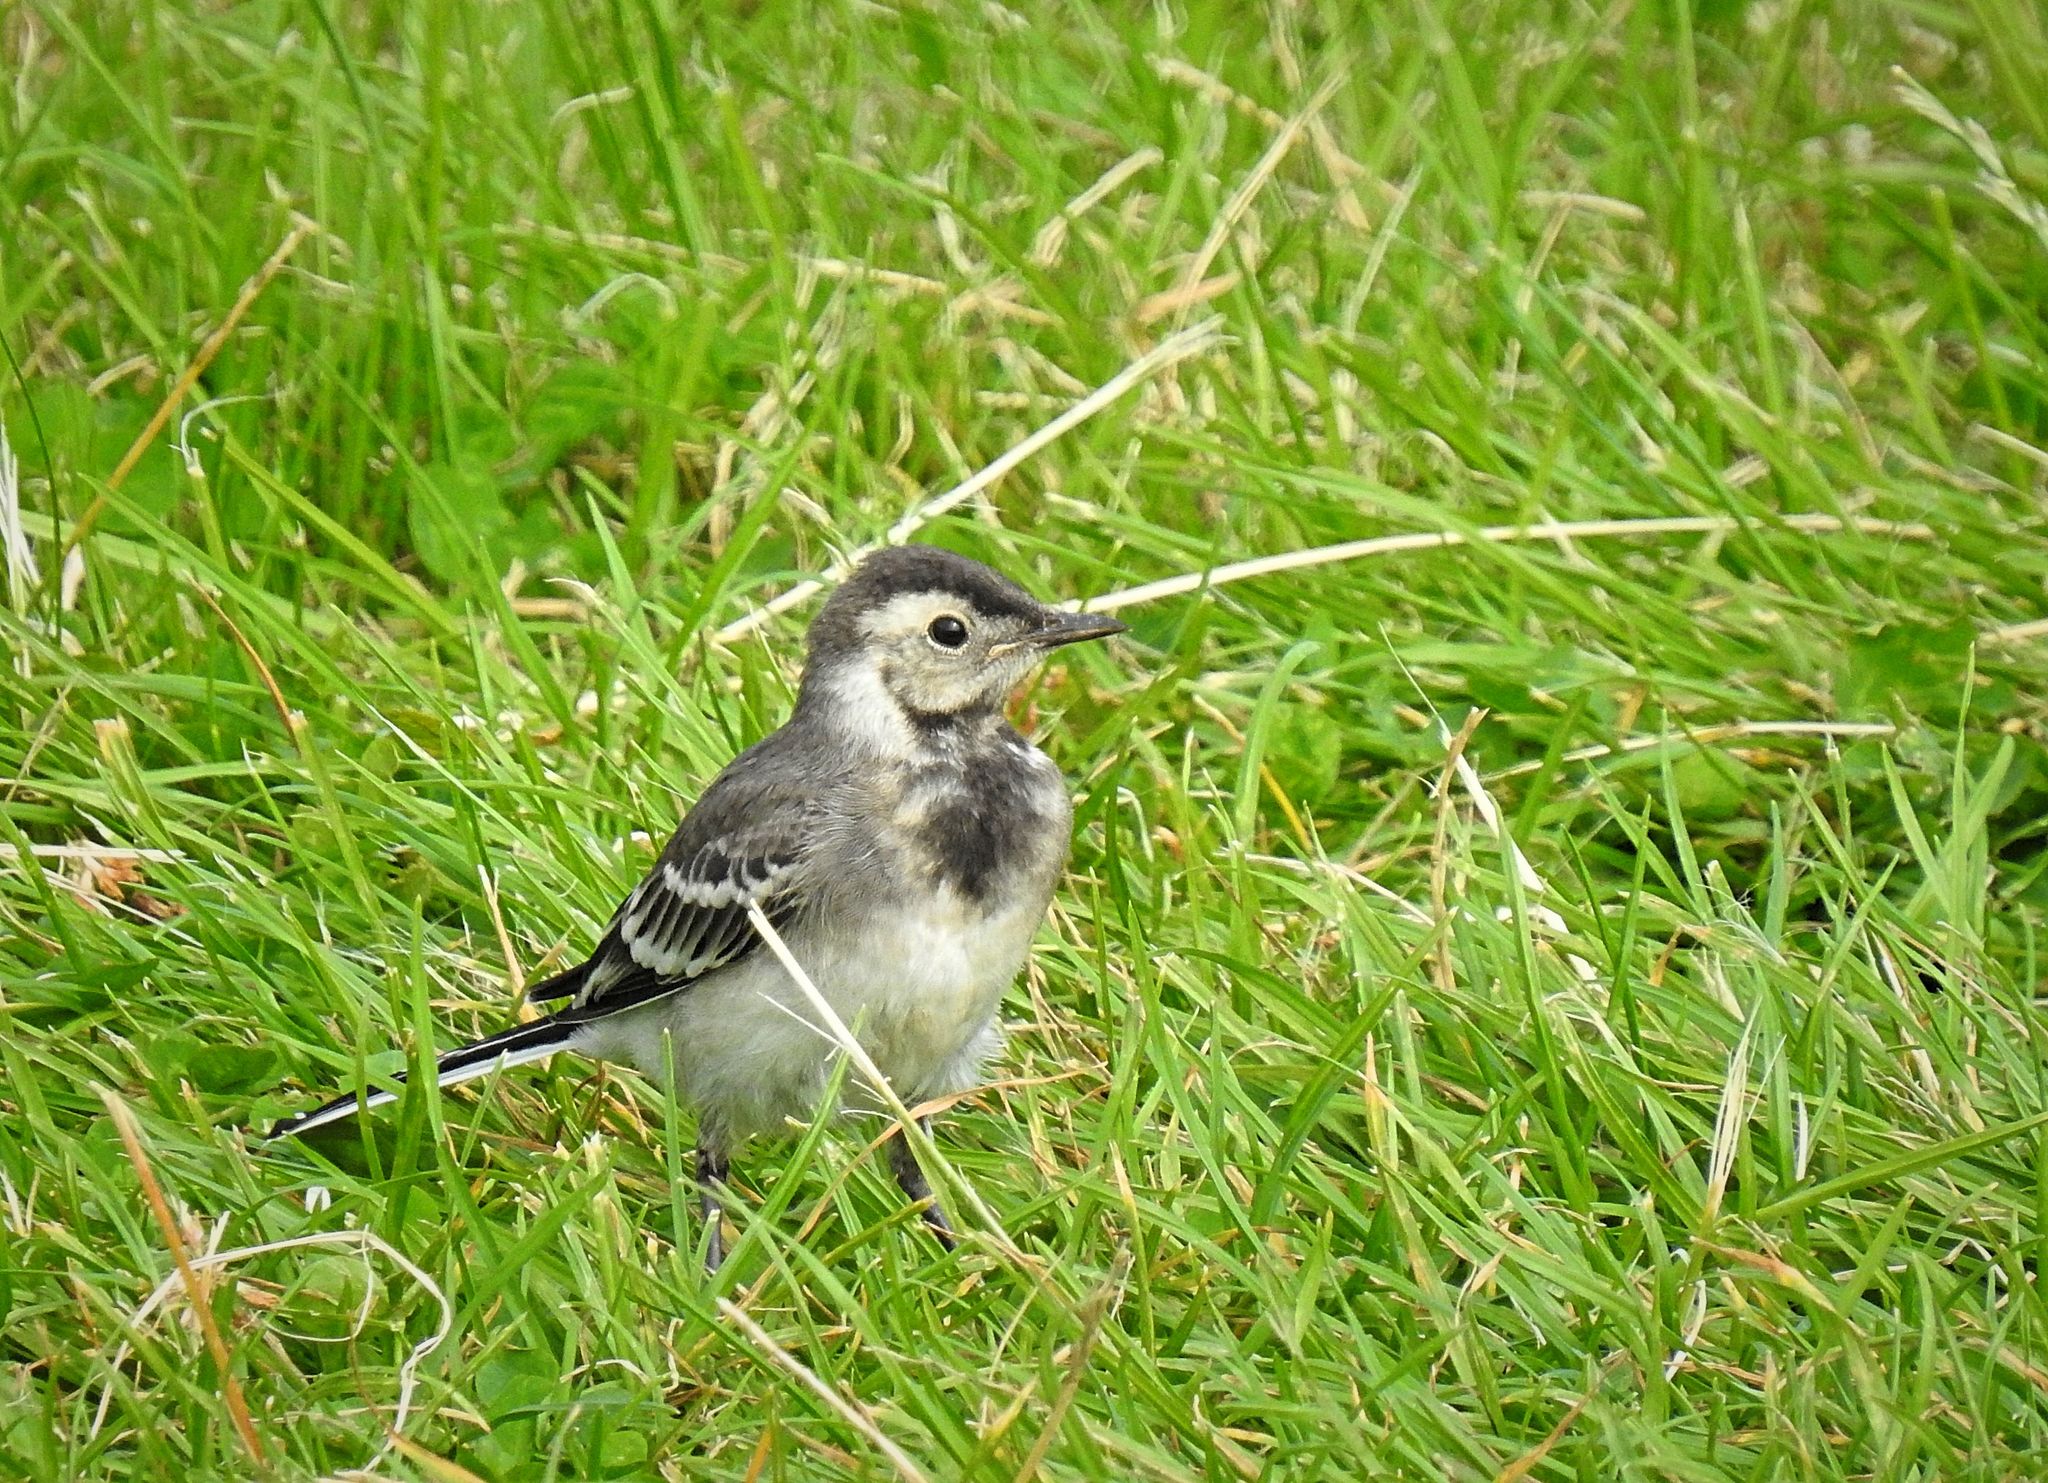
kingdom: Animalia
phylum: Chordata
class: Aves
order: Passeriformes
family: Motacillidae
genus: Motacilla
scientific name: Motacilla alba
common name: White wagtail
